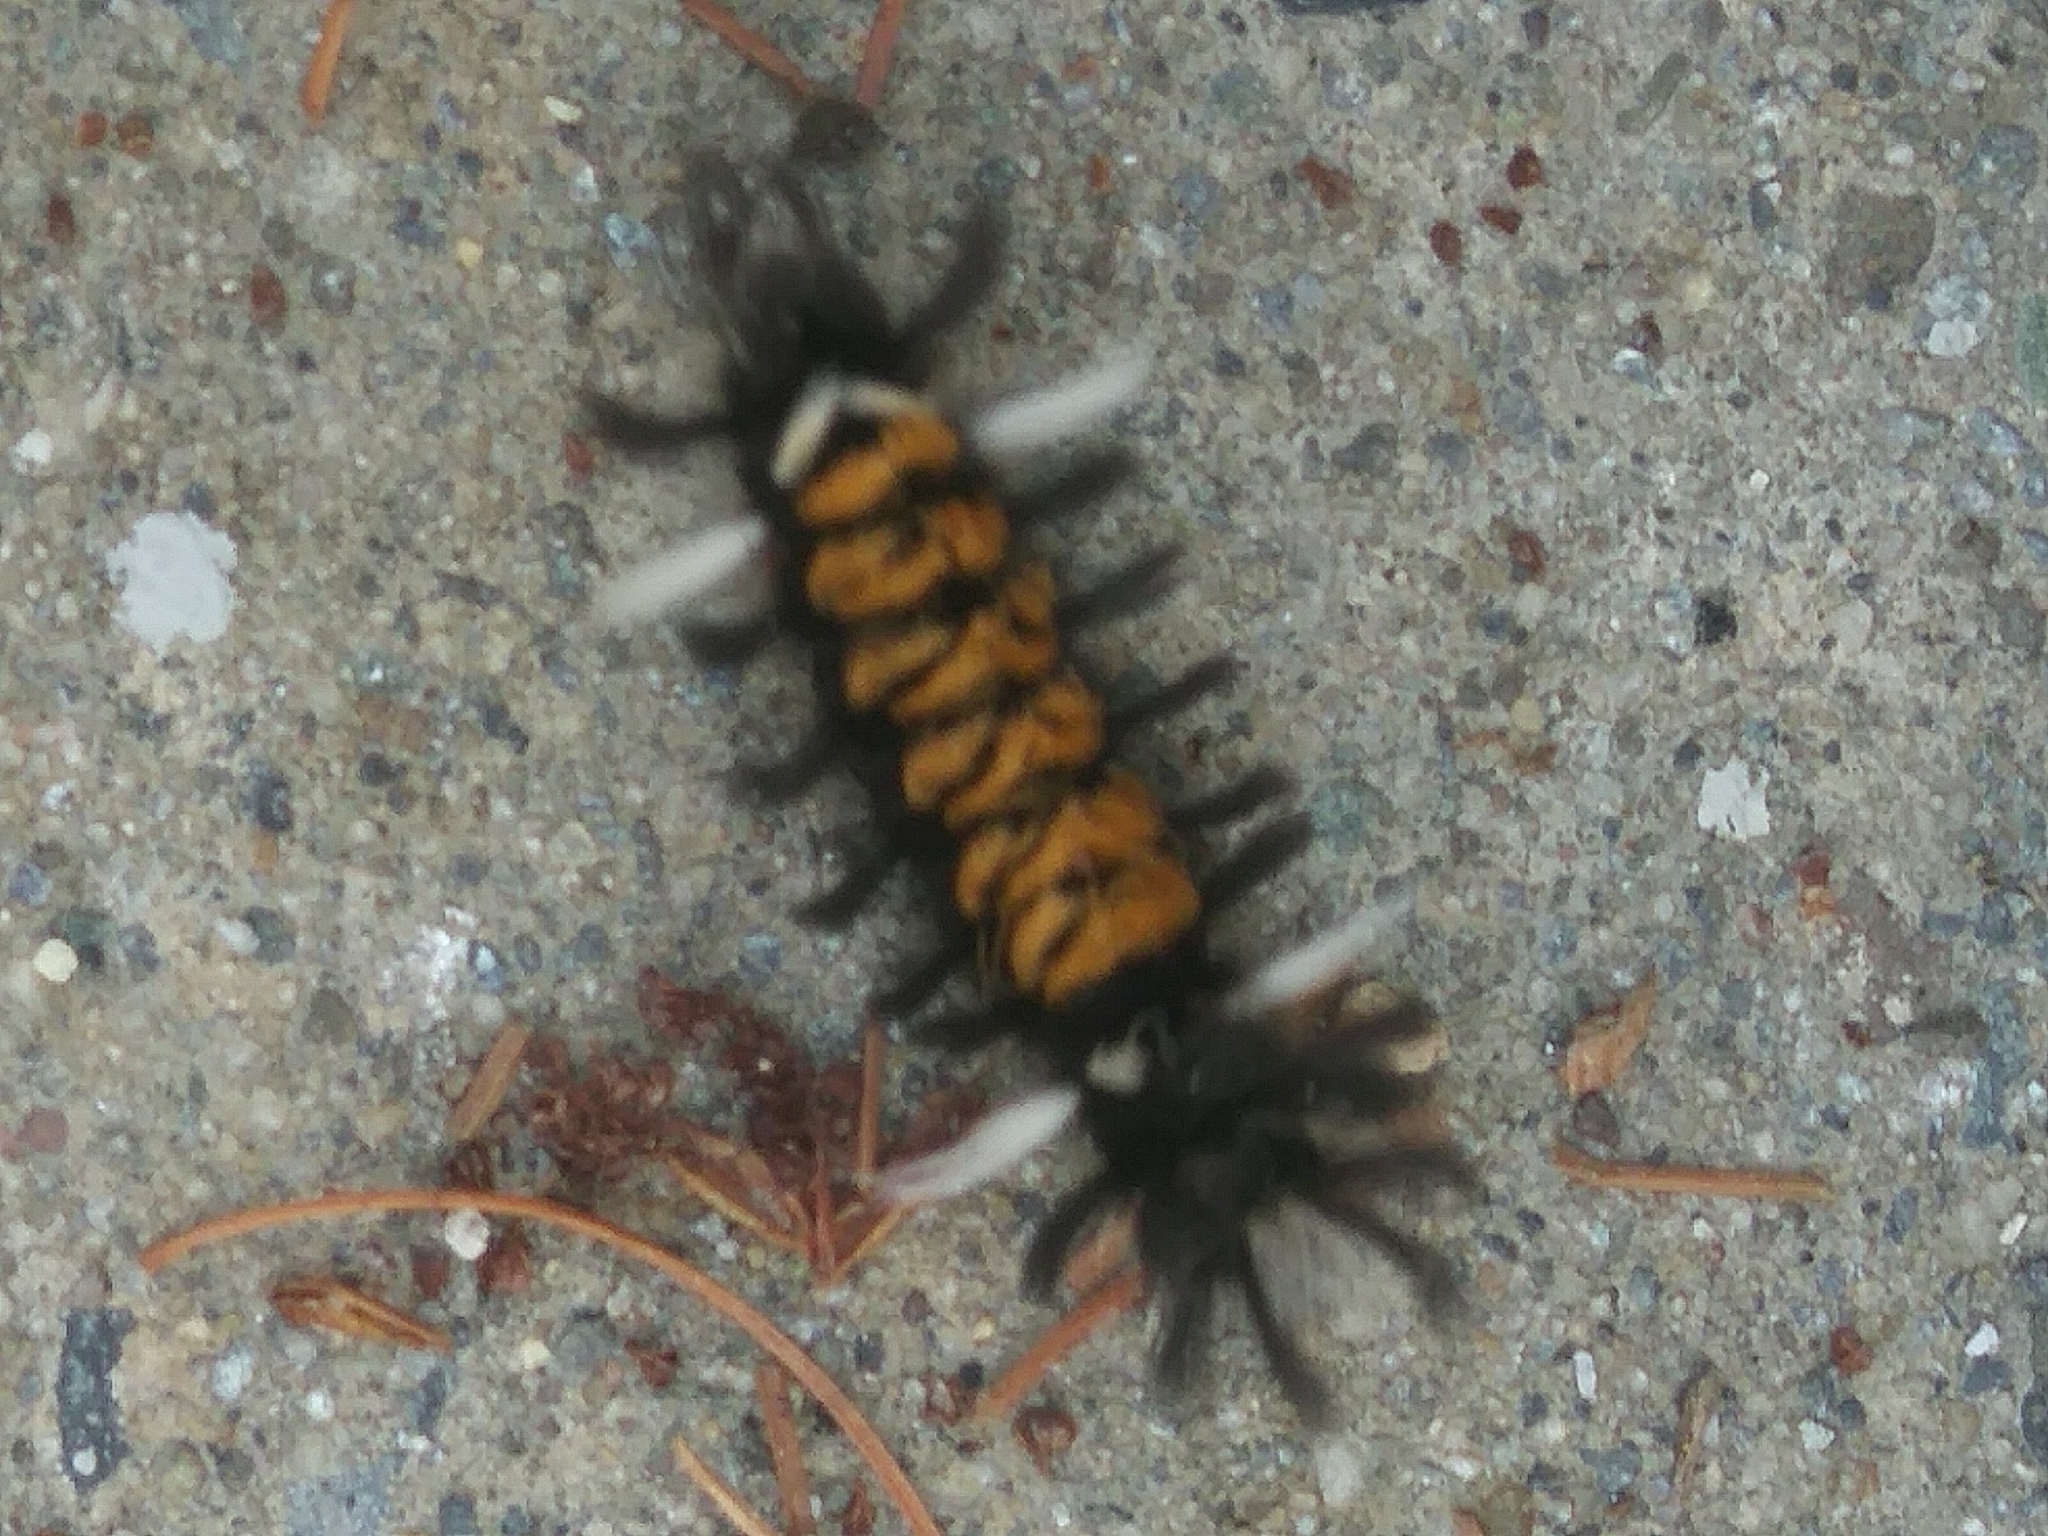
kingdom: Animalia
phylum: Arthropoda
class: Insecta
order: Lepidoptera
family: Erebidae
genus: Euchaetes
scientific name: Euchaetes egle
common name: Milkweed tussock moth
